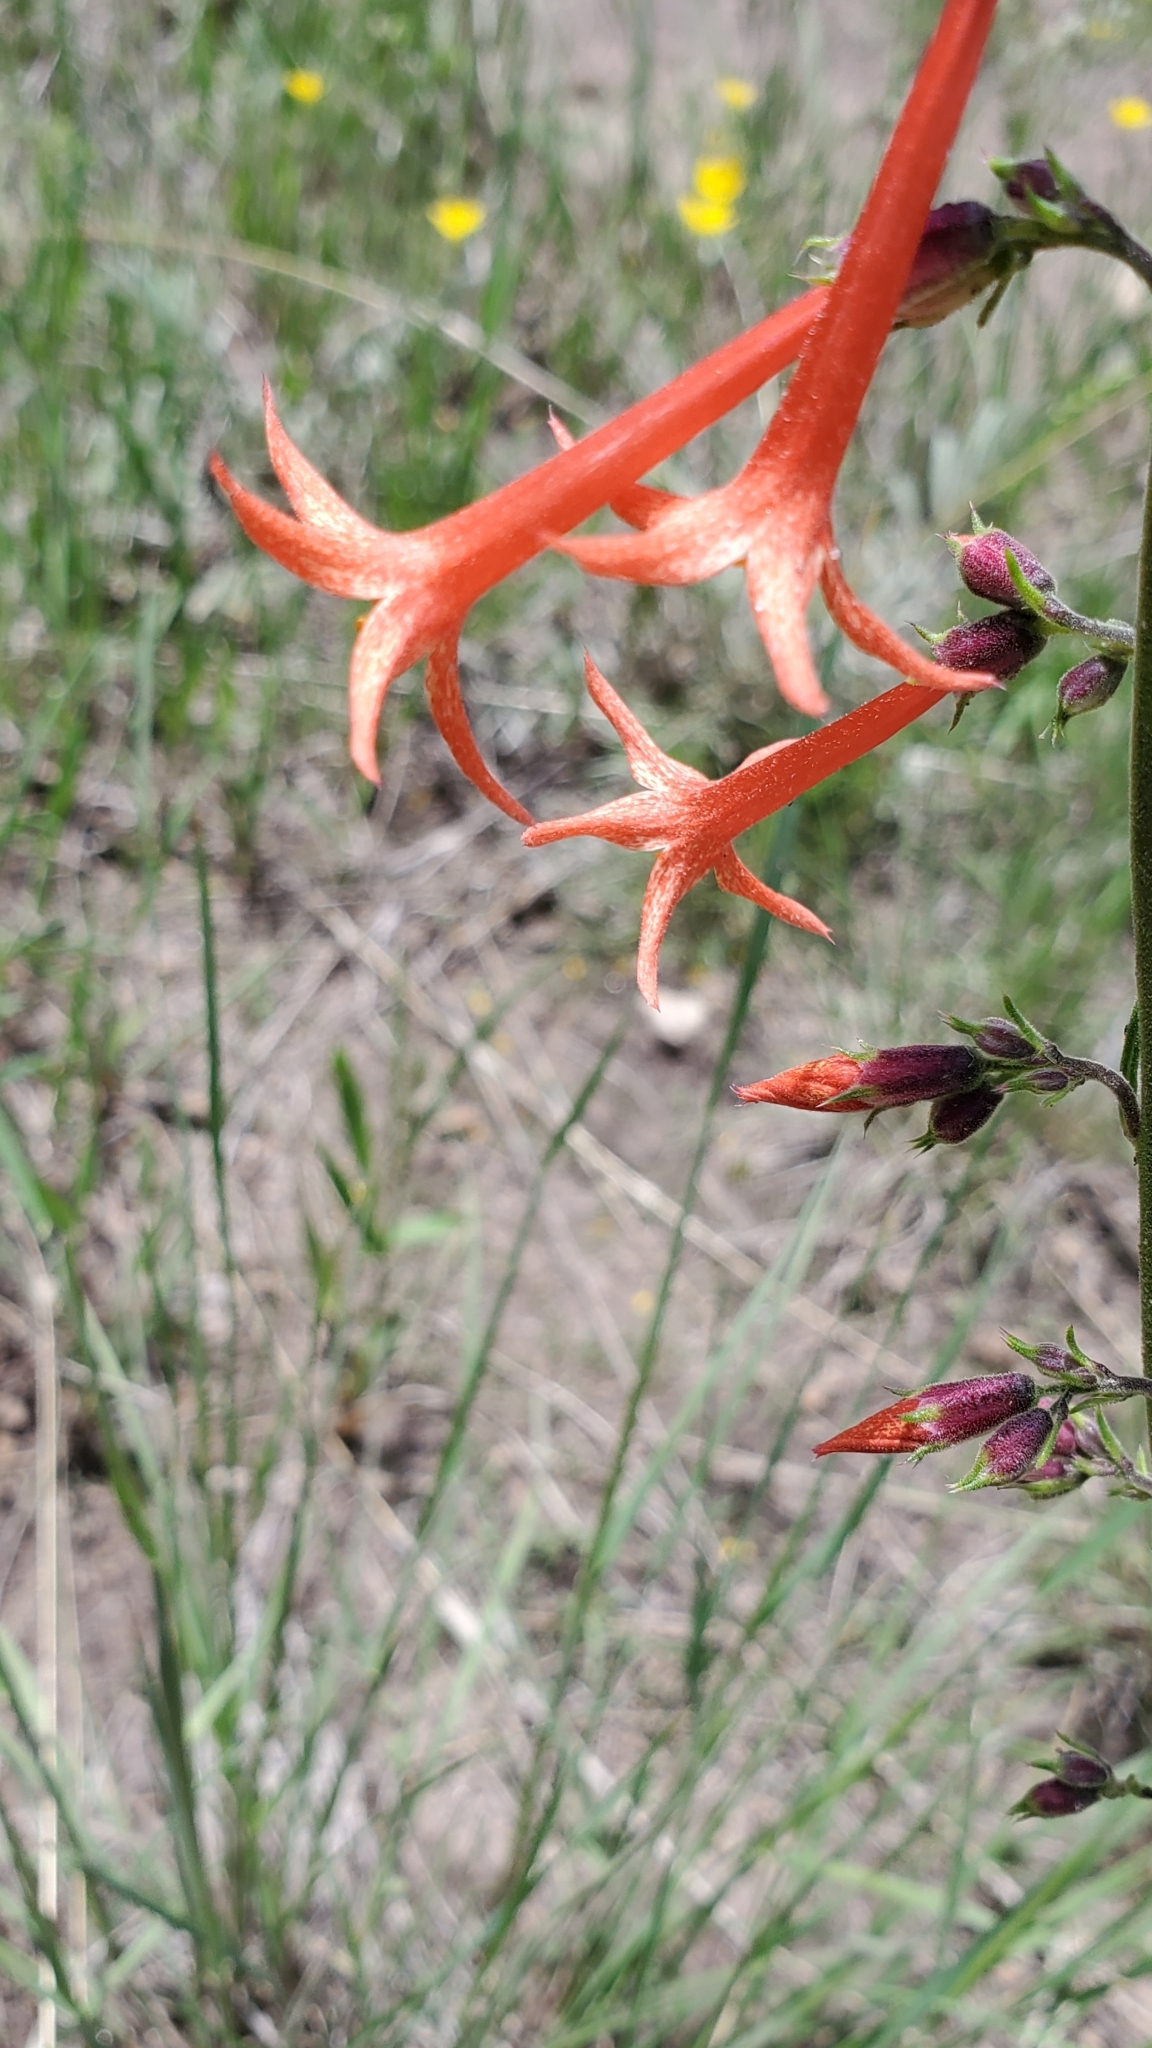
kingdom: Plantae
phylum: Tracheophyta
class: Magnoliopsida
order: Ericales
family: Polemoniaceae
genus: Ipomopsis
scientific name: Ipomopsis aggregata
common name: Scarlet gilia
